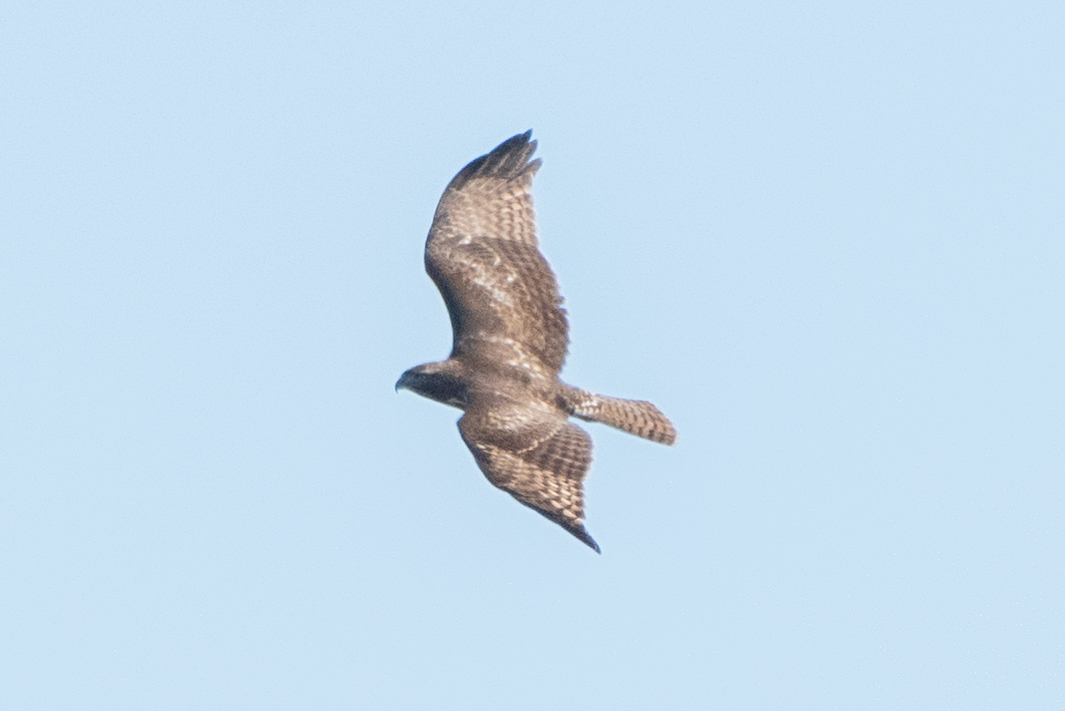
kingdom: Animalia
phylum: Chordata
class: Aves
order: Accipitriformes
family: Accipitridae
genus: Buteo
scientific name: Buteo jamaicensis
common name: Red-tailed hawk
